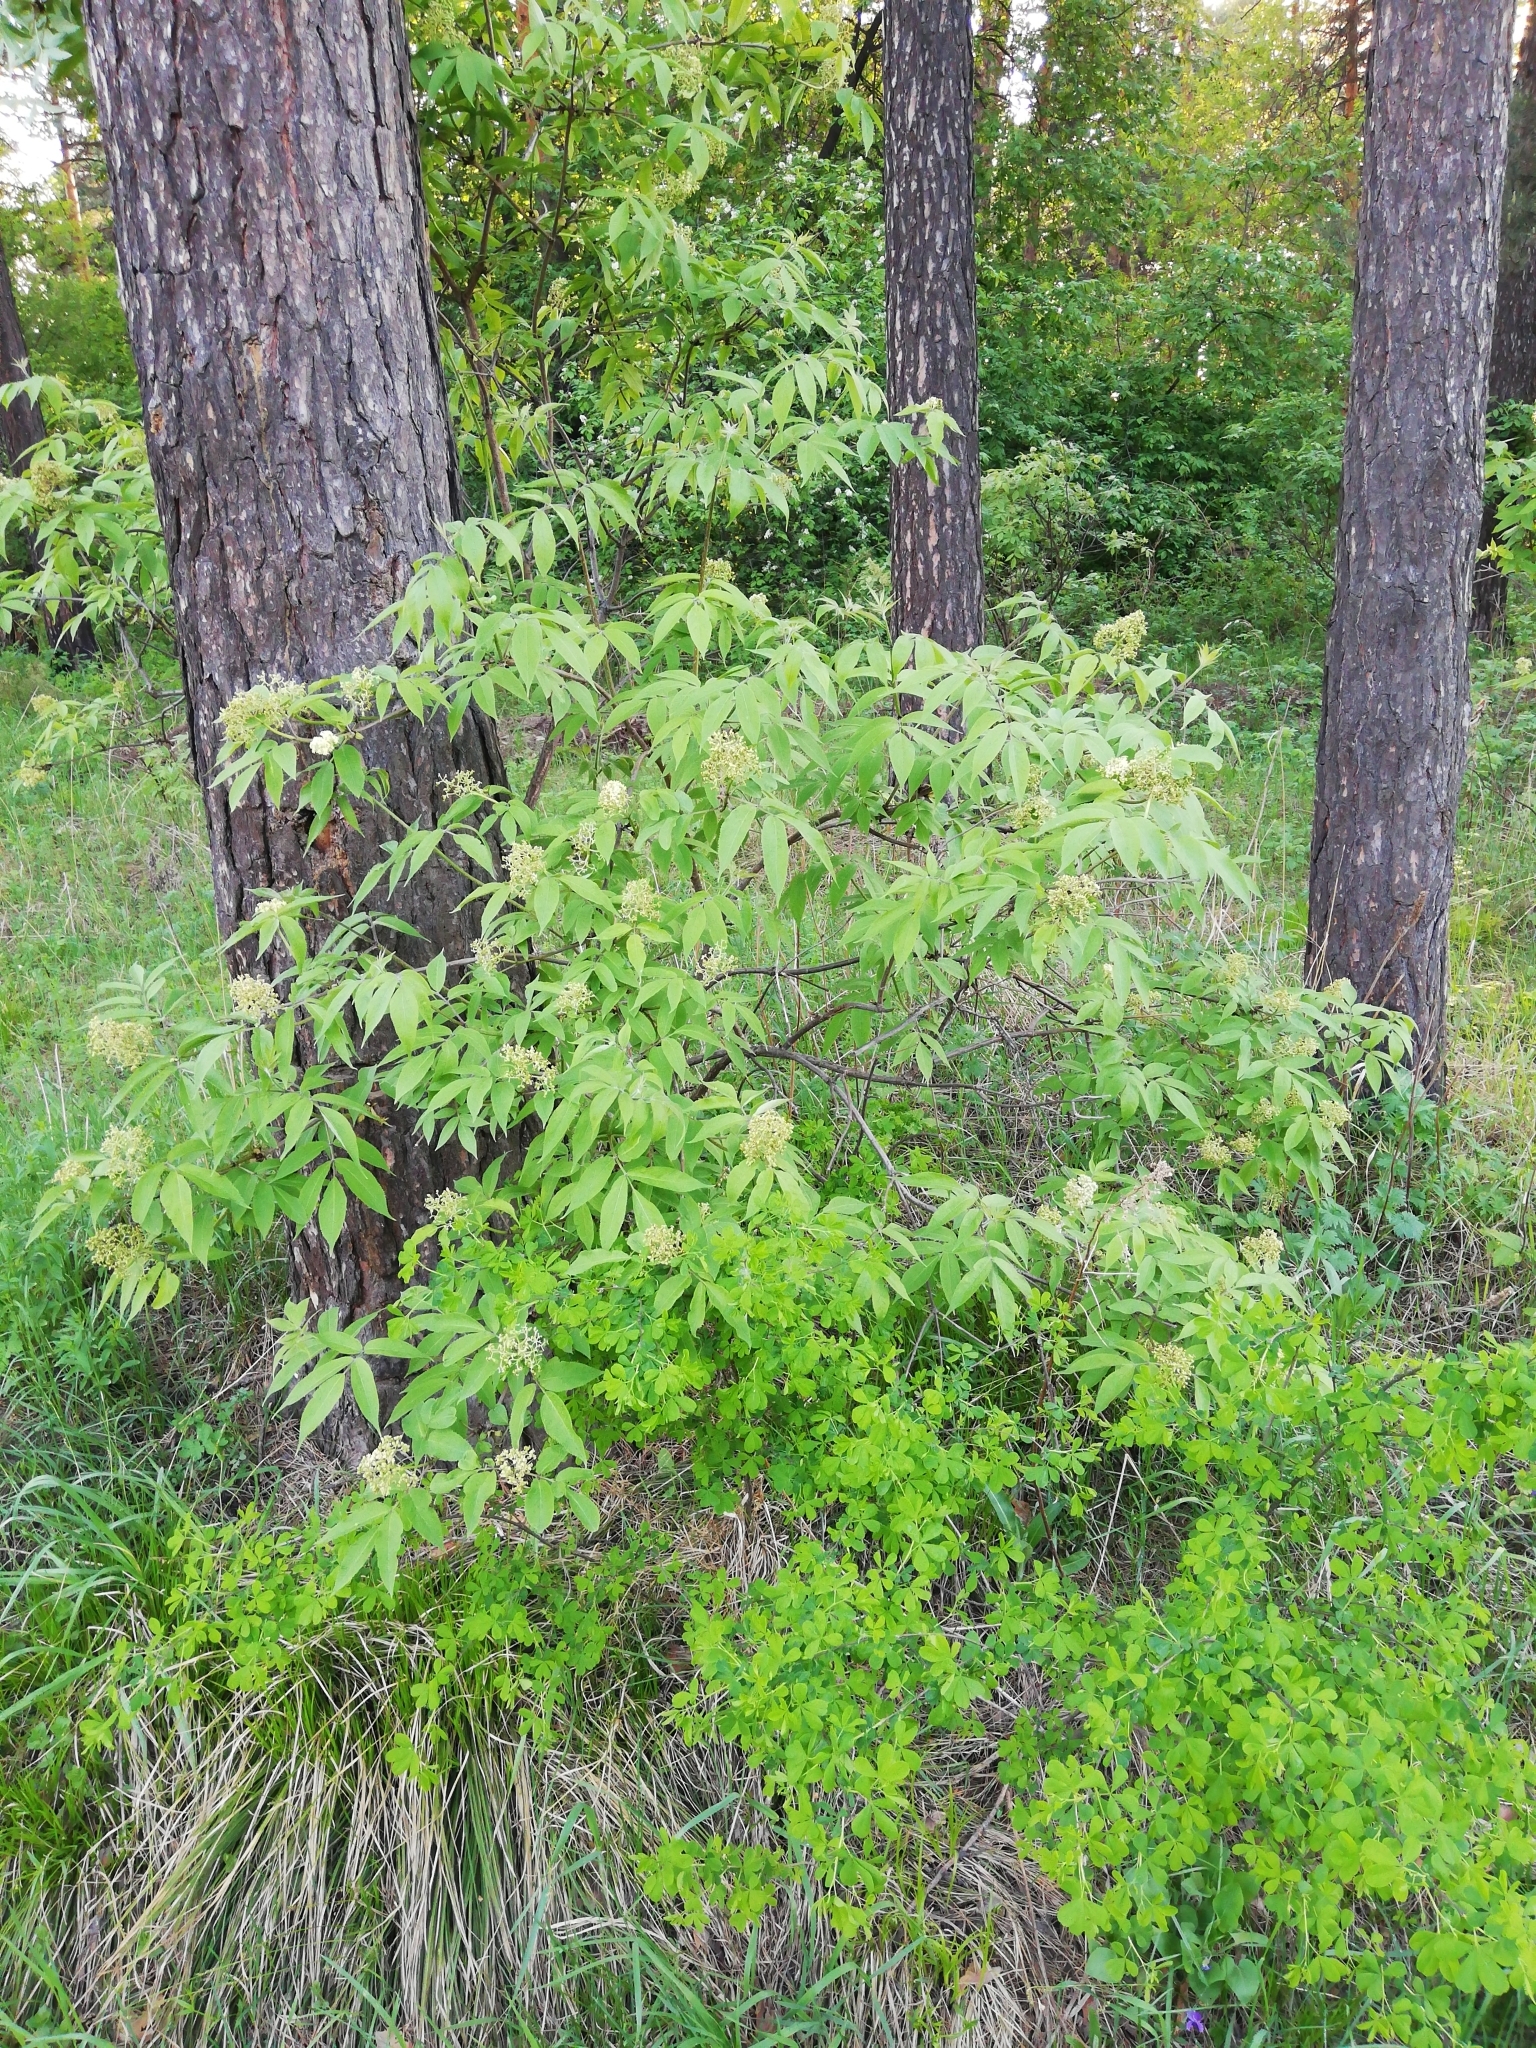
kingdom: Plantae
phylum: Tracheophyta
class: Magnoliopsida
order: Dipsacales
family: Viburnaceae
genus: Sambucus
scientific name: Sambucus sibirica
